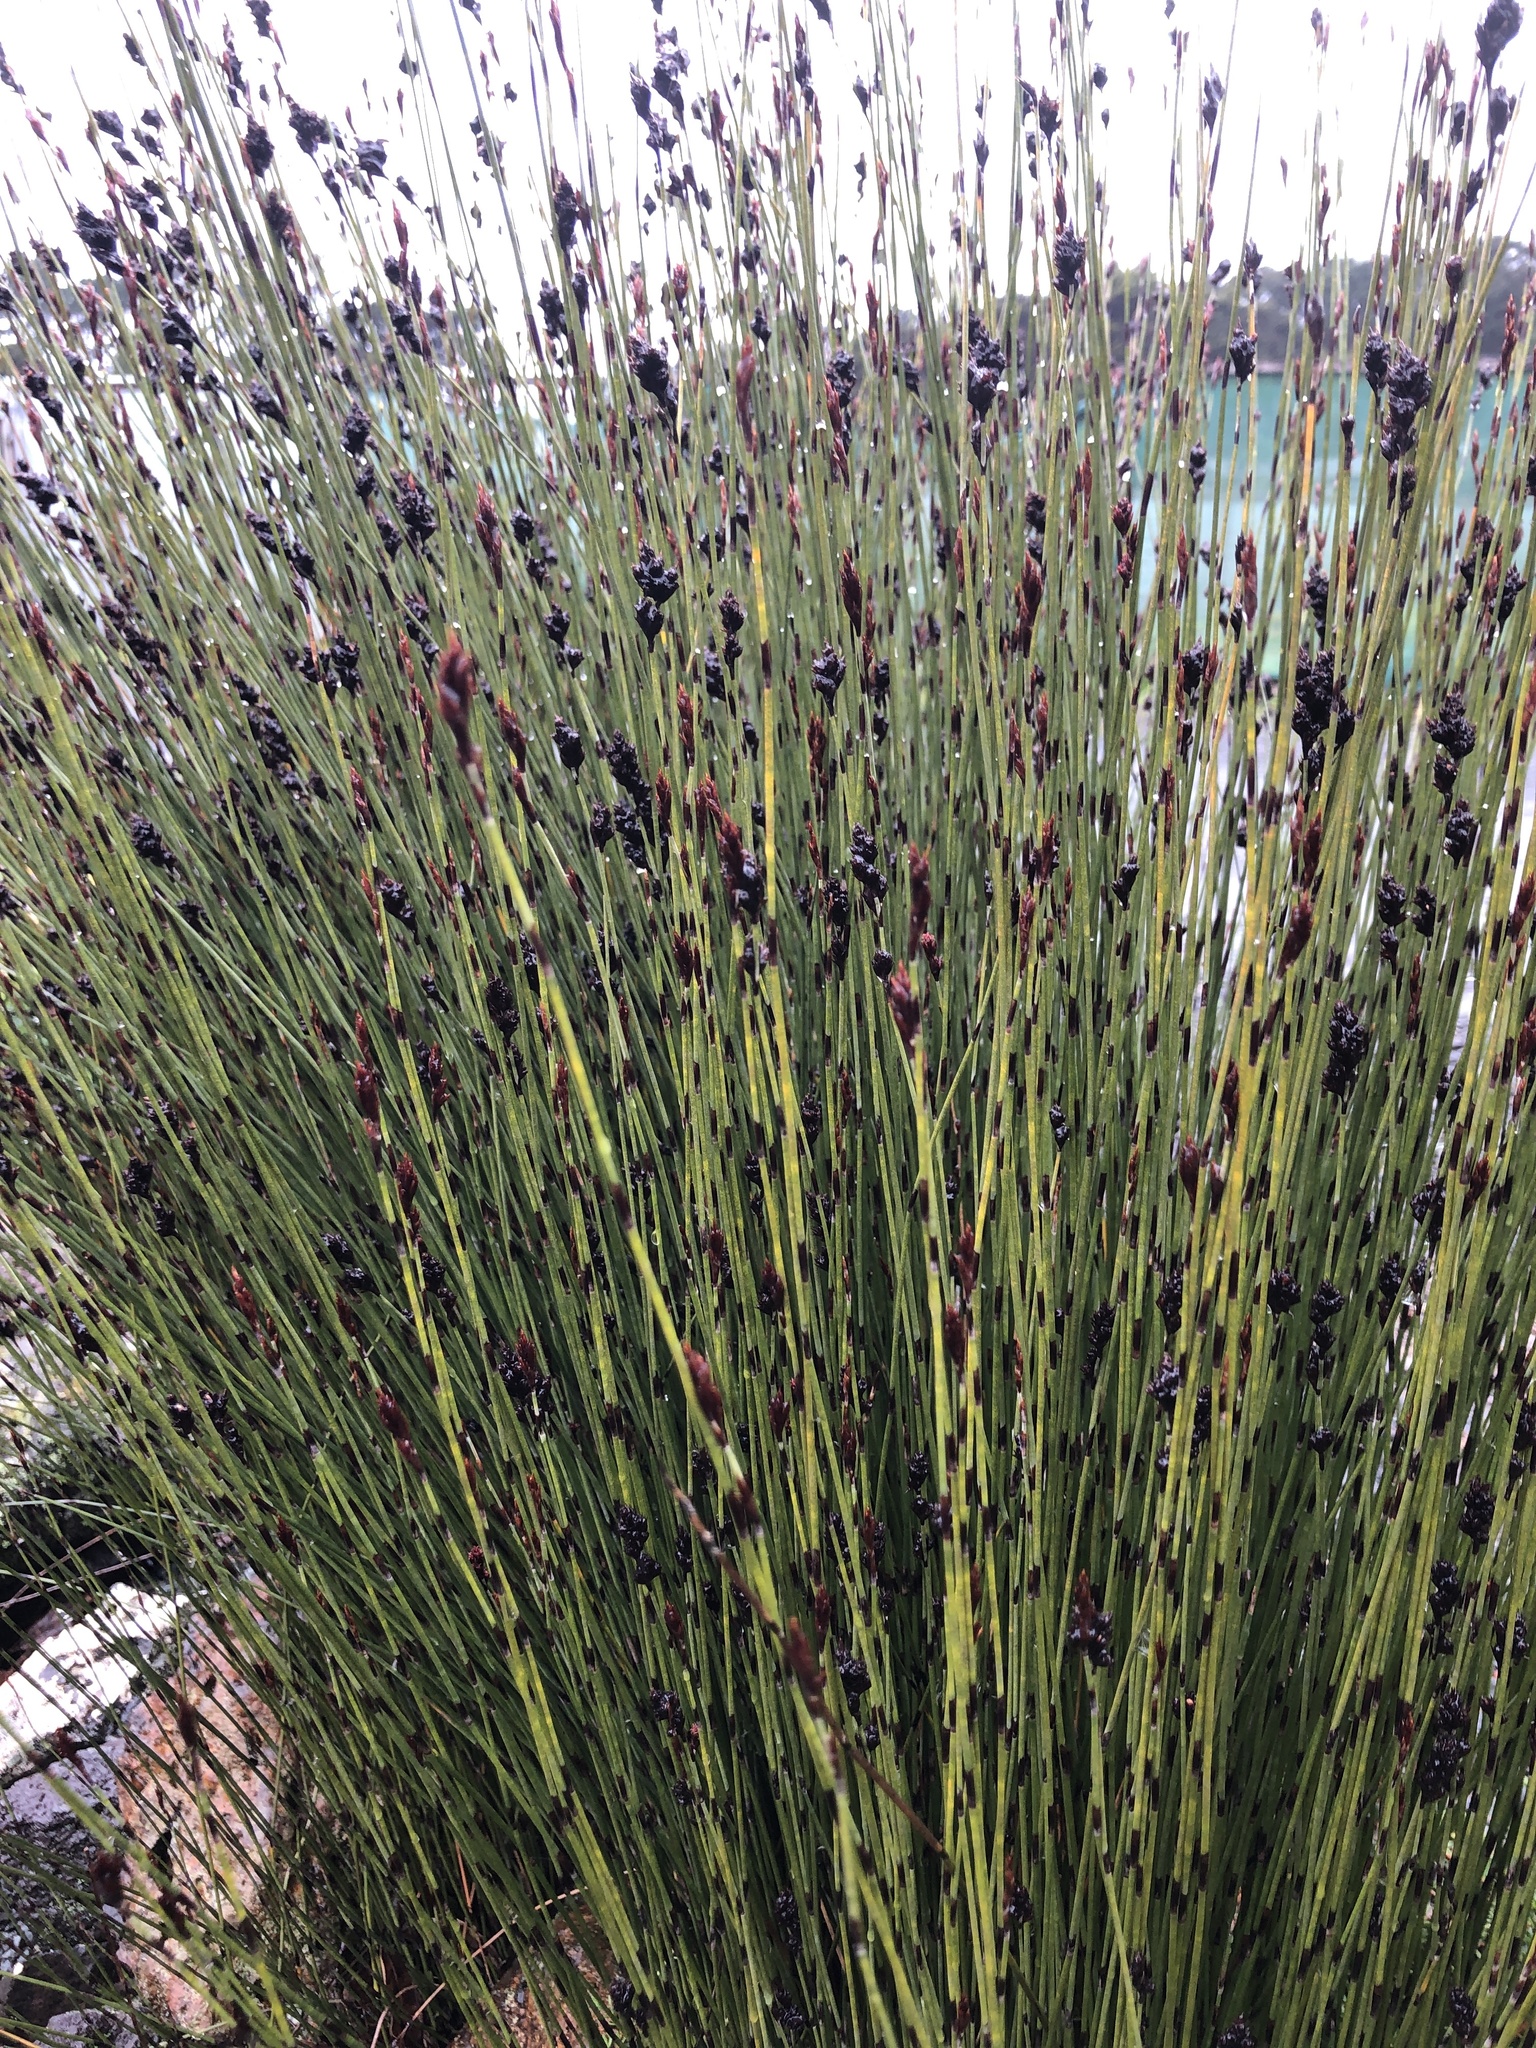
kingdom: Plantae
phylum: Tracheophyta
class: Liliopsida
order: Poales
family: Restionaceae
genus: Apodasmia
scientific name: Apodasmia similis
